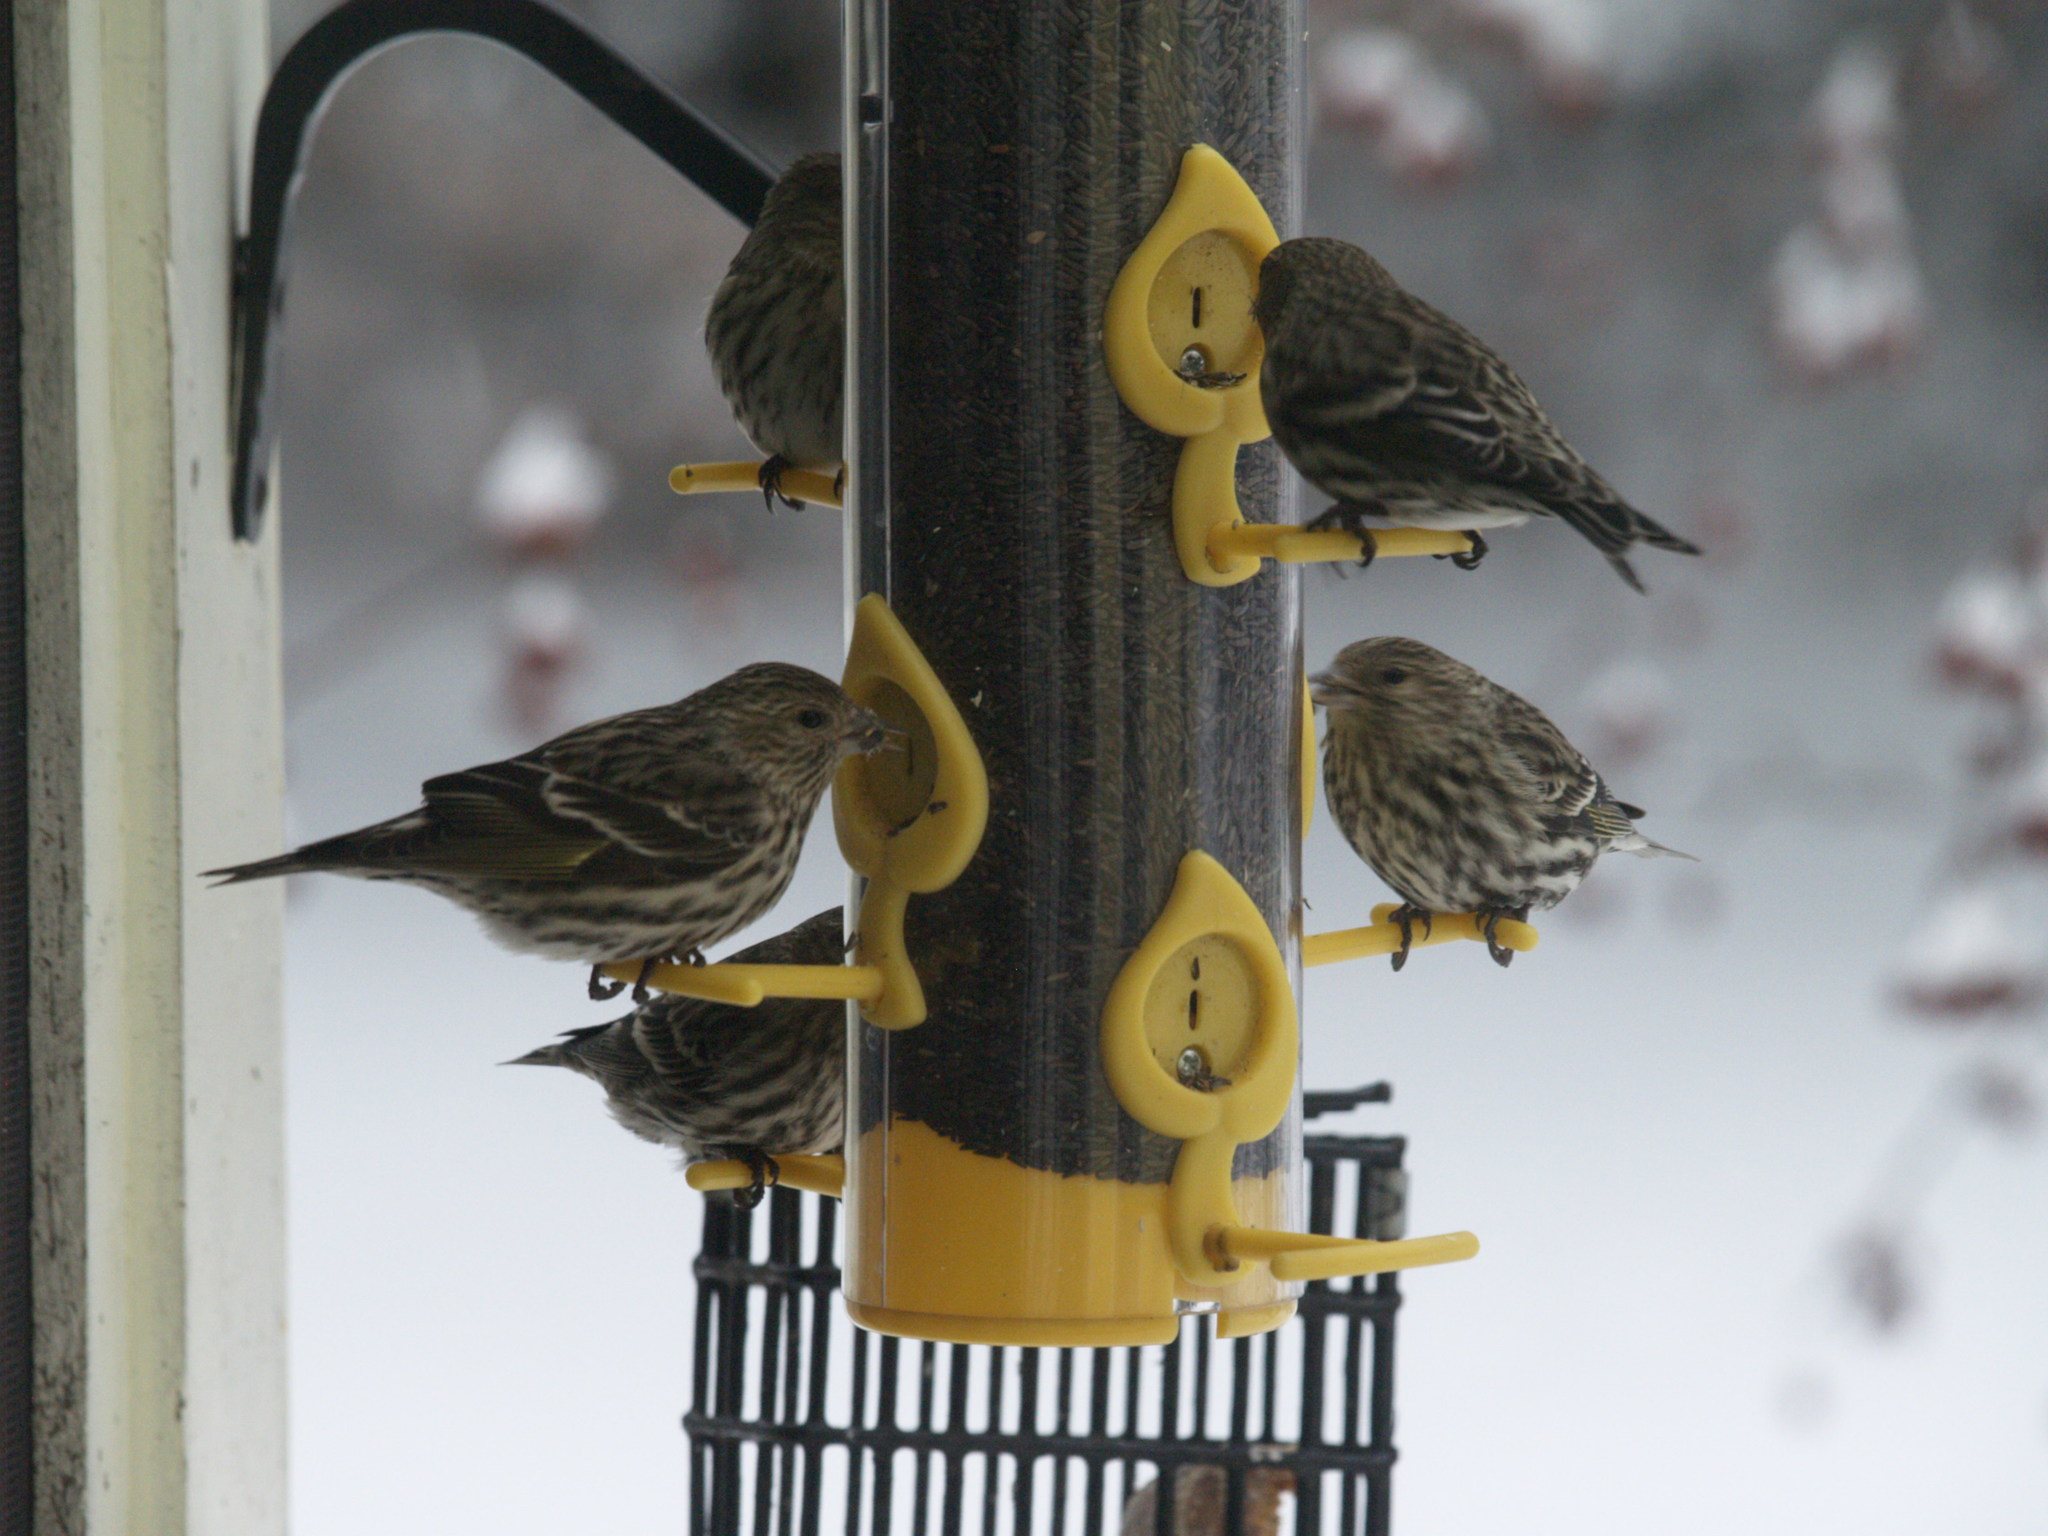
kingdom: Animalia
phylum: Chordata
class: Aves
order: Passeriformes
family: Fringillidae
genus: Spinus
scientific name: Spinus pinus
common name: Pine siskin
